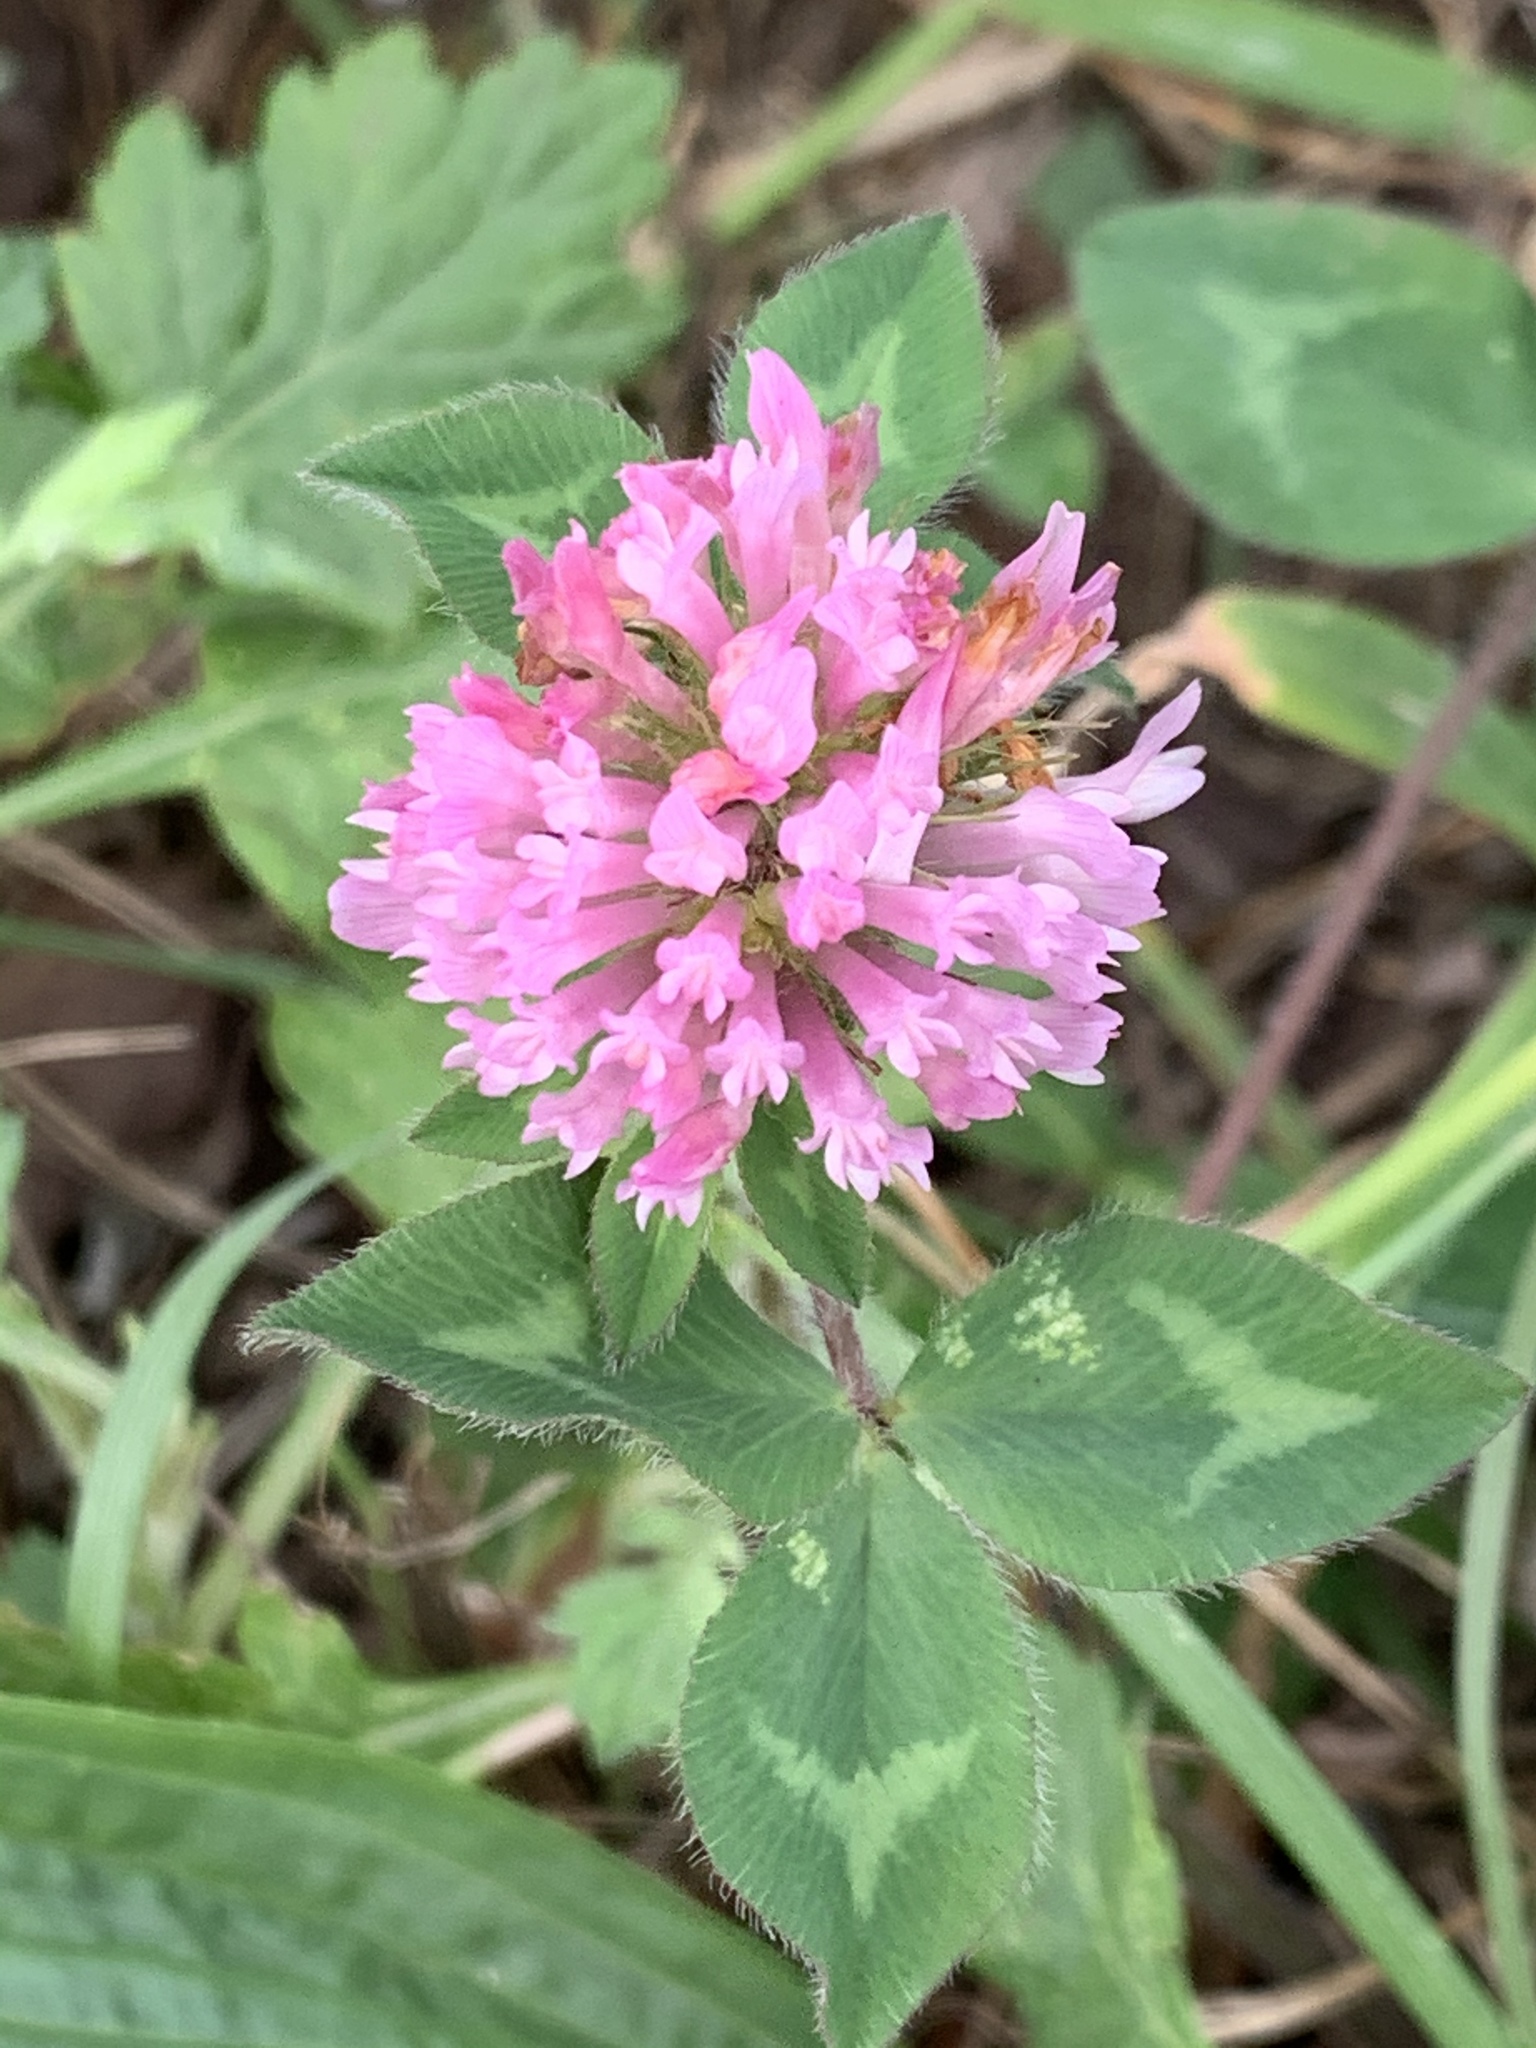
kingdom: Plantae
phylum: Tracheophyta
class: Magnoliopsida
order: Fabales
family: Fabaceae
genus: Trifolium
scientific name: Trifolium pratense
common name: Red clover
